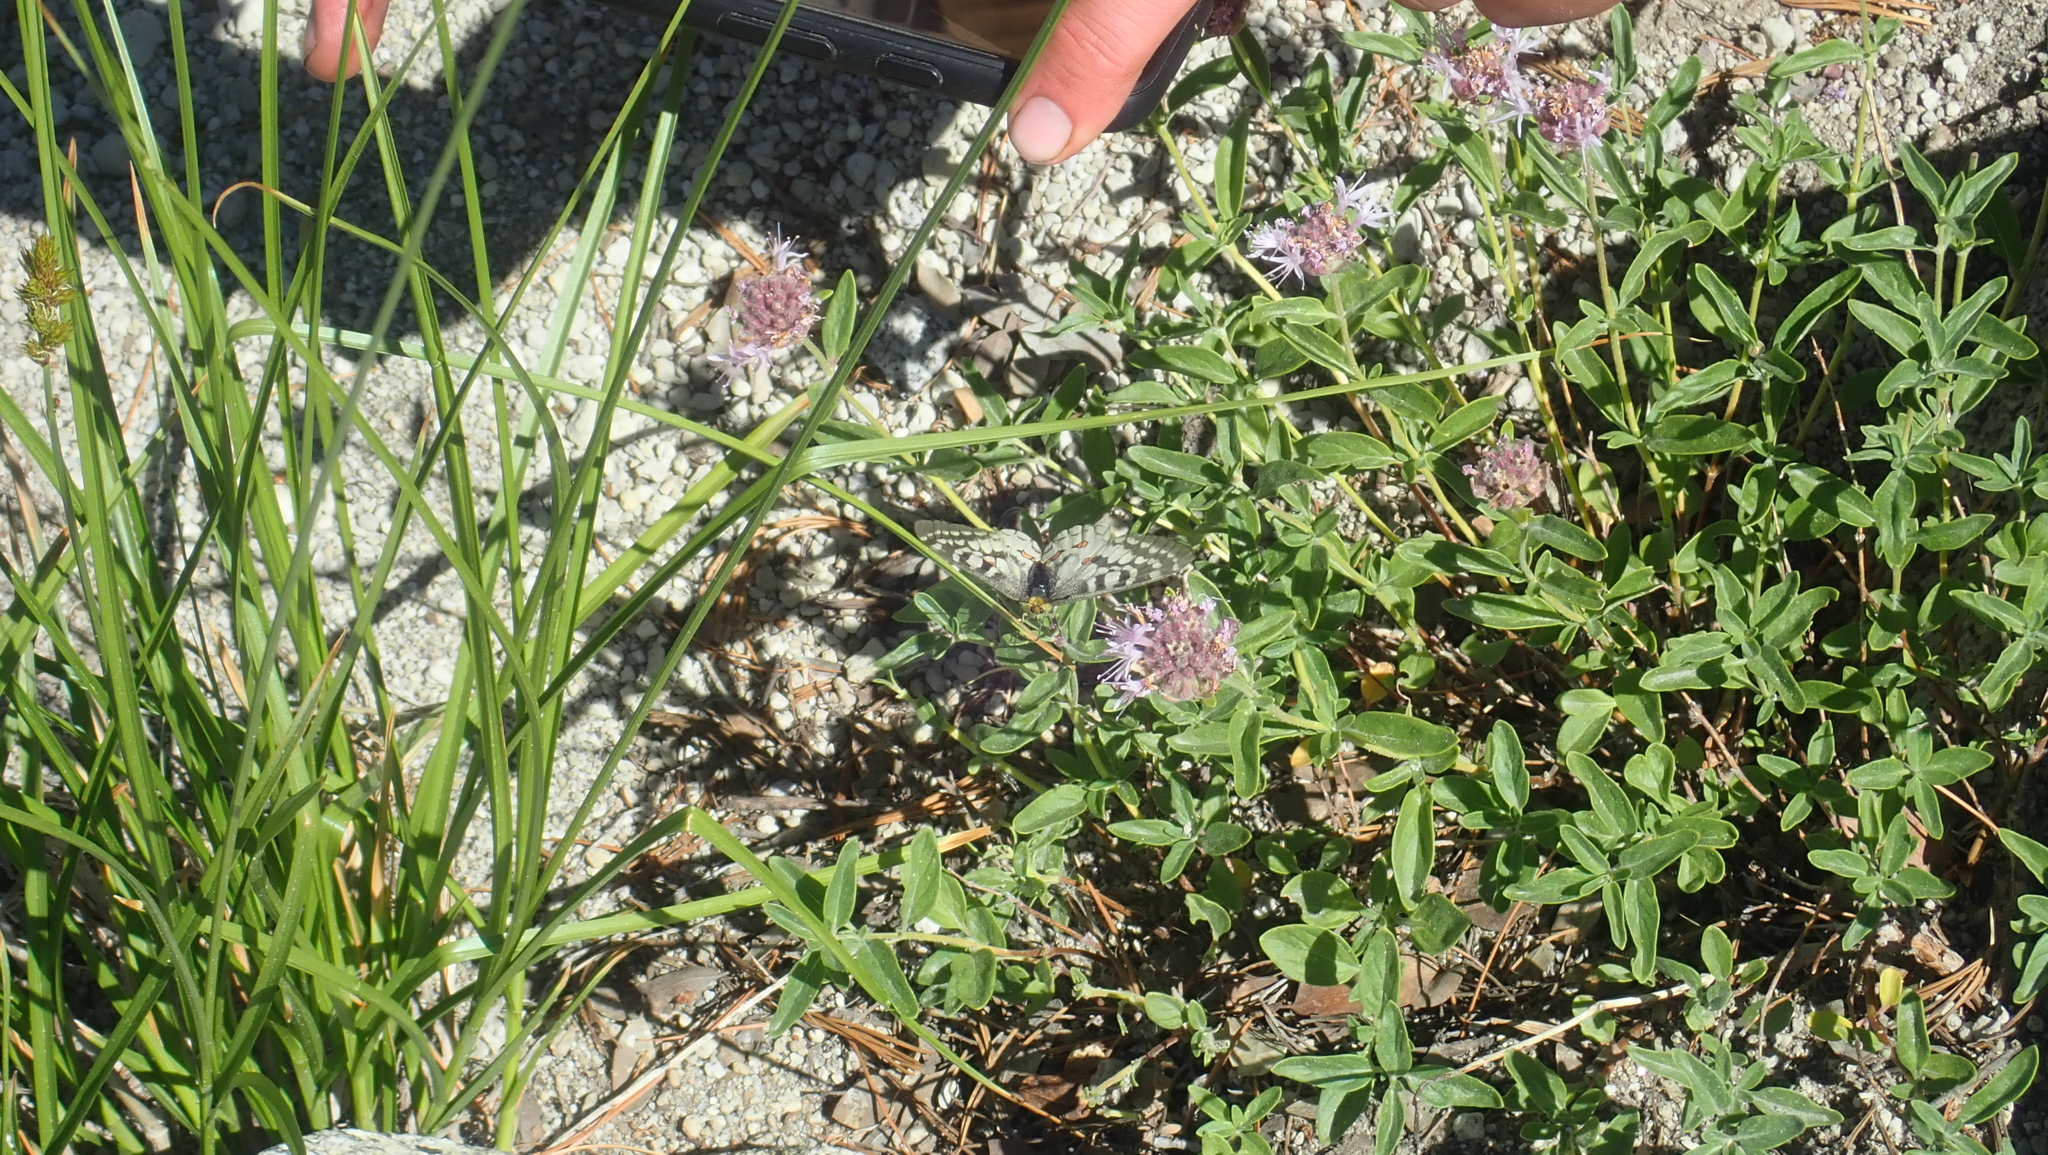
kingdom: Animalia
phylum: Arthropoda
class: Insecta
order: Lepidoptera
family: Papilionidae
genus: Parnassius
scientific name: Parnassius clodius
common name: American apollo
